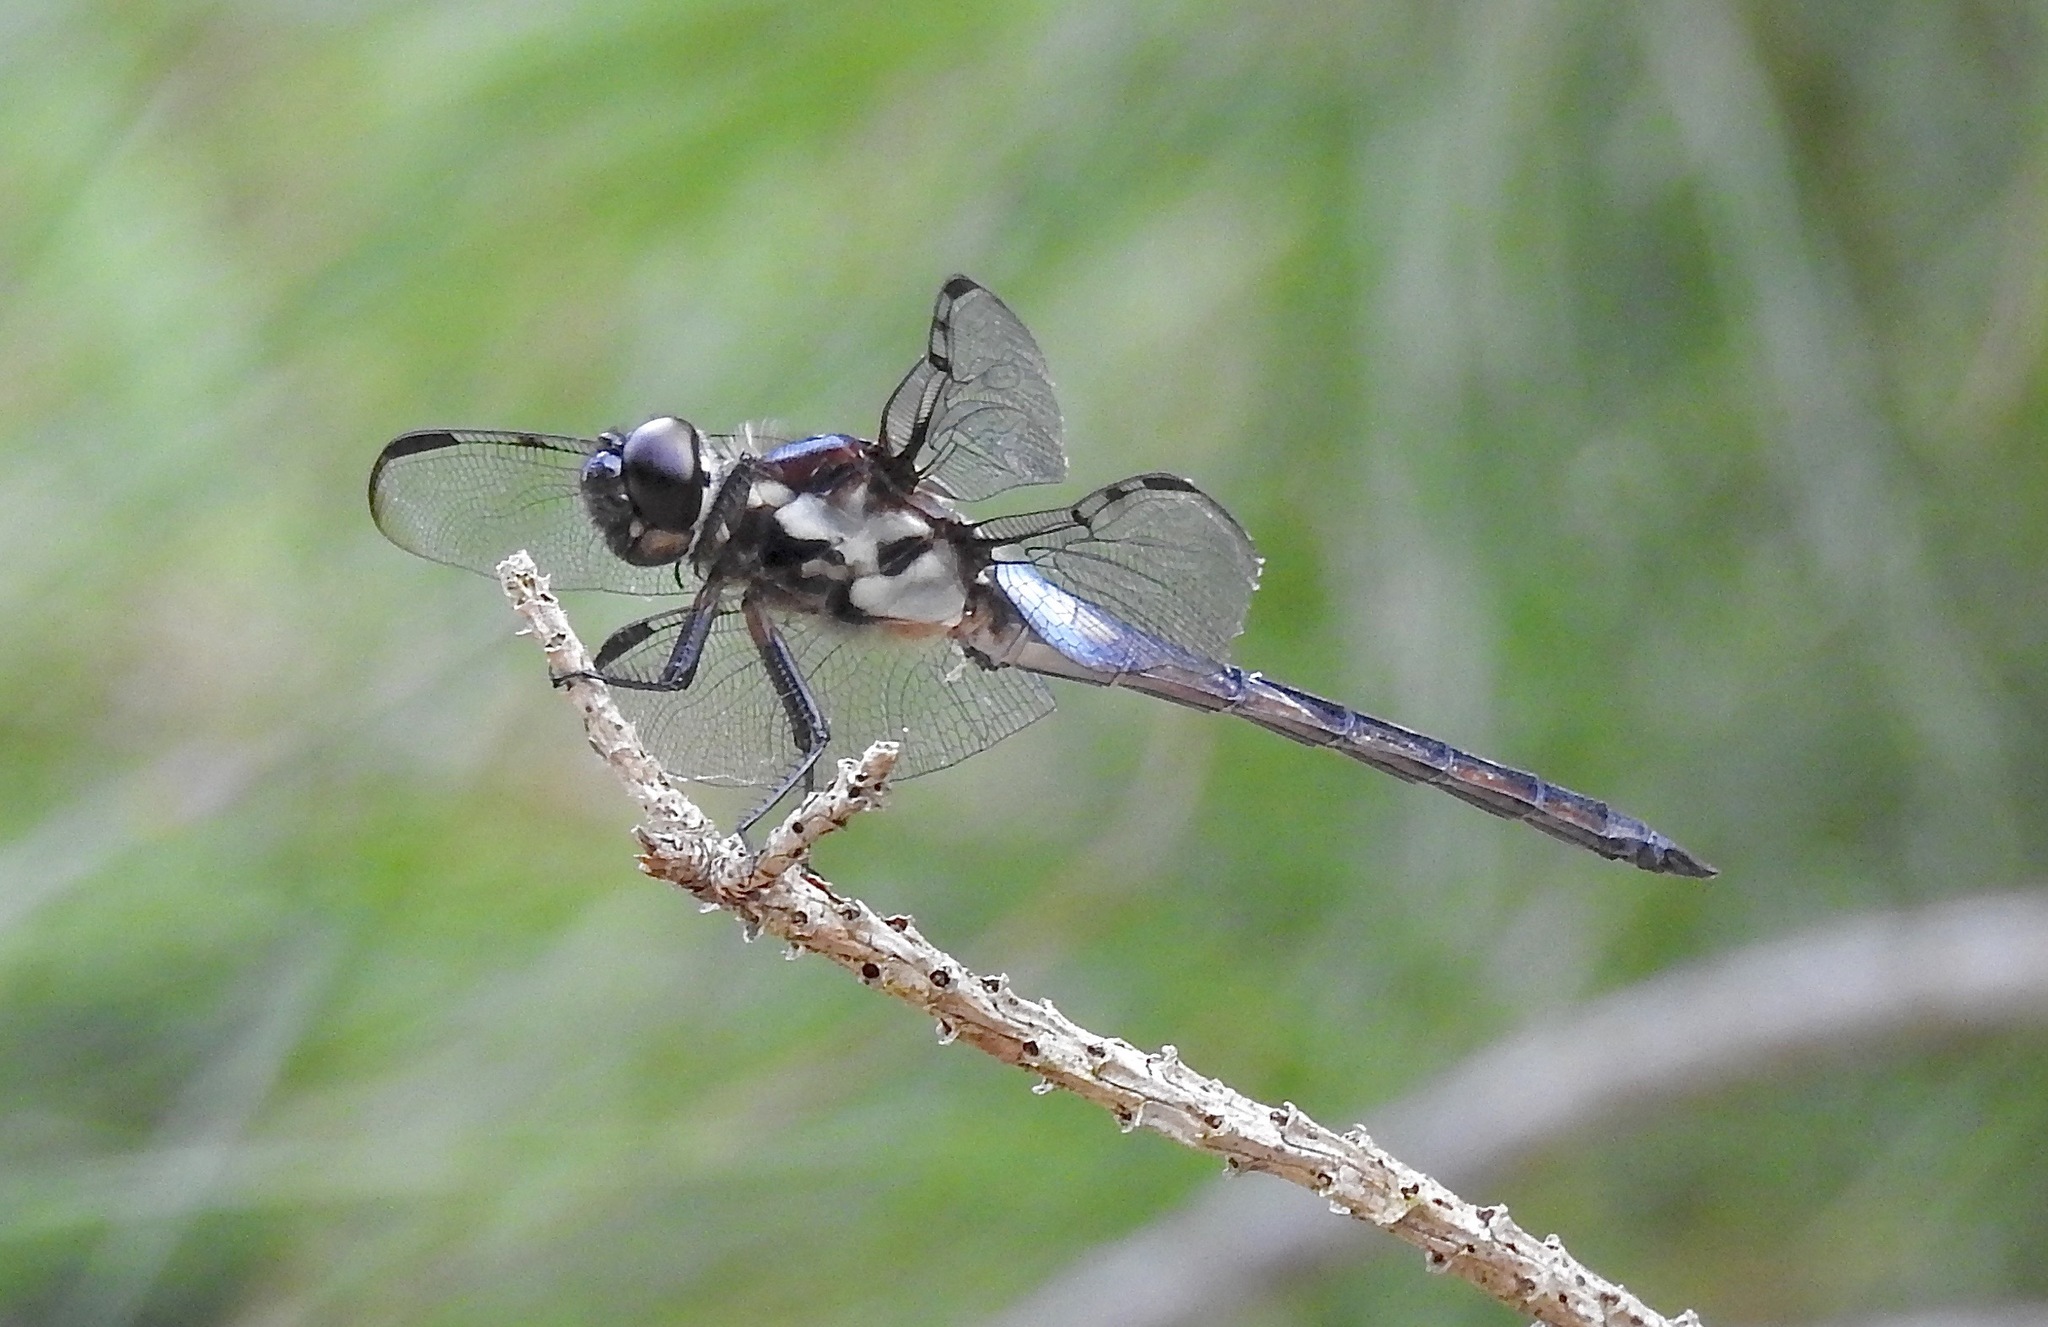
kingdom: Animalia
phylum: Arthropoda
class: Insecta
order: Odonata
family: Libellulidae
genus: Libellula
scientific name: Libellula axilena
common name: Bar-winged skimmer
